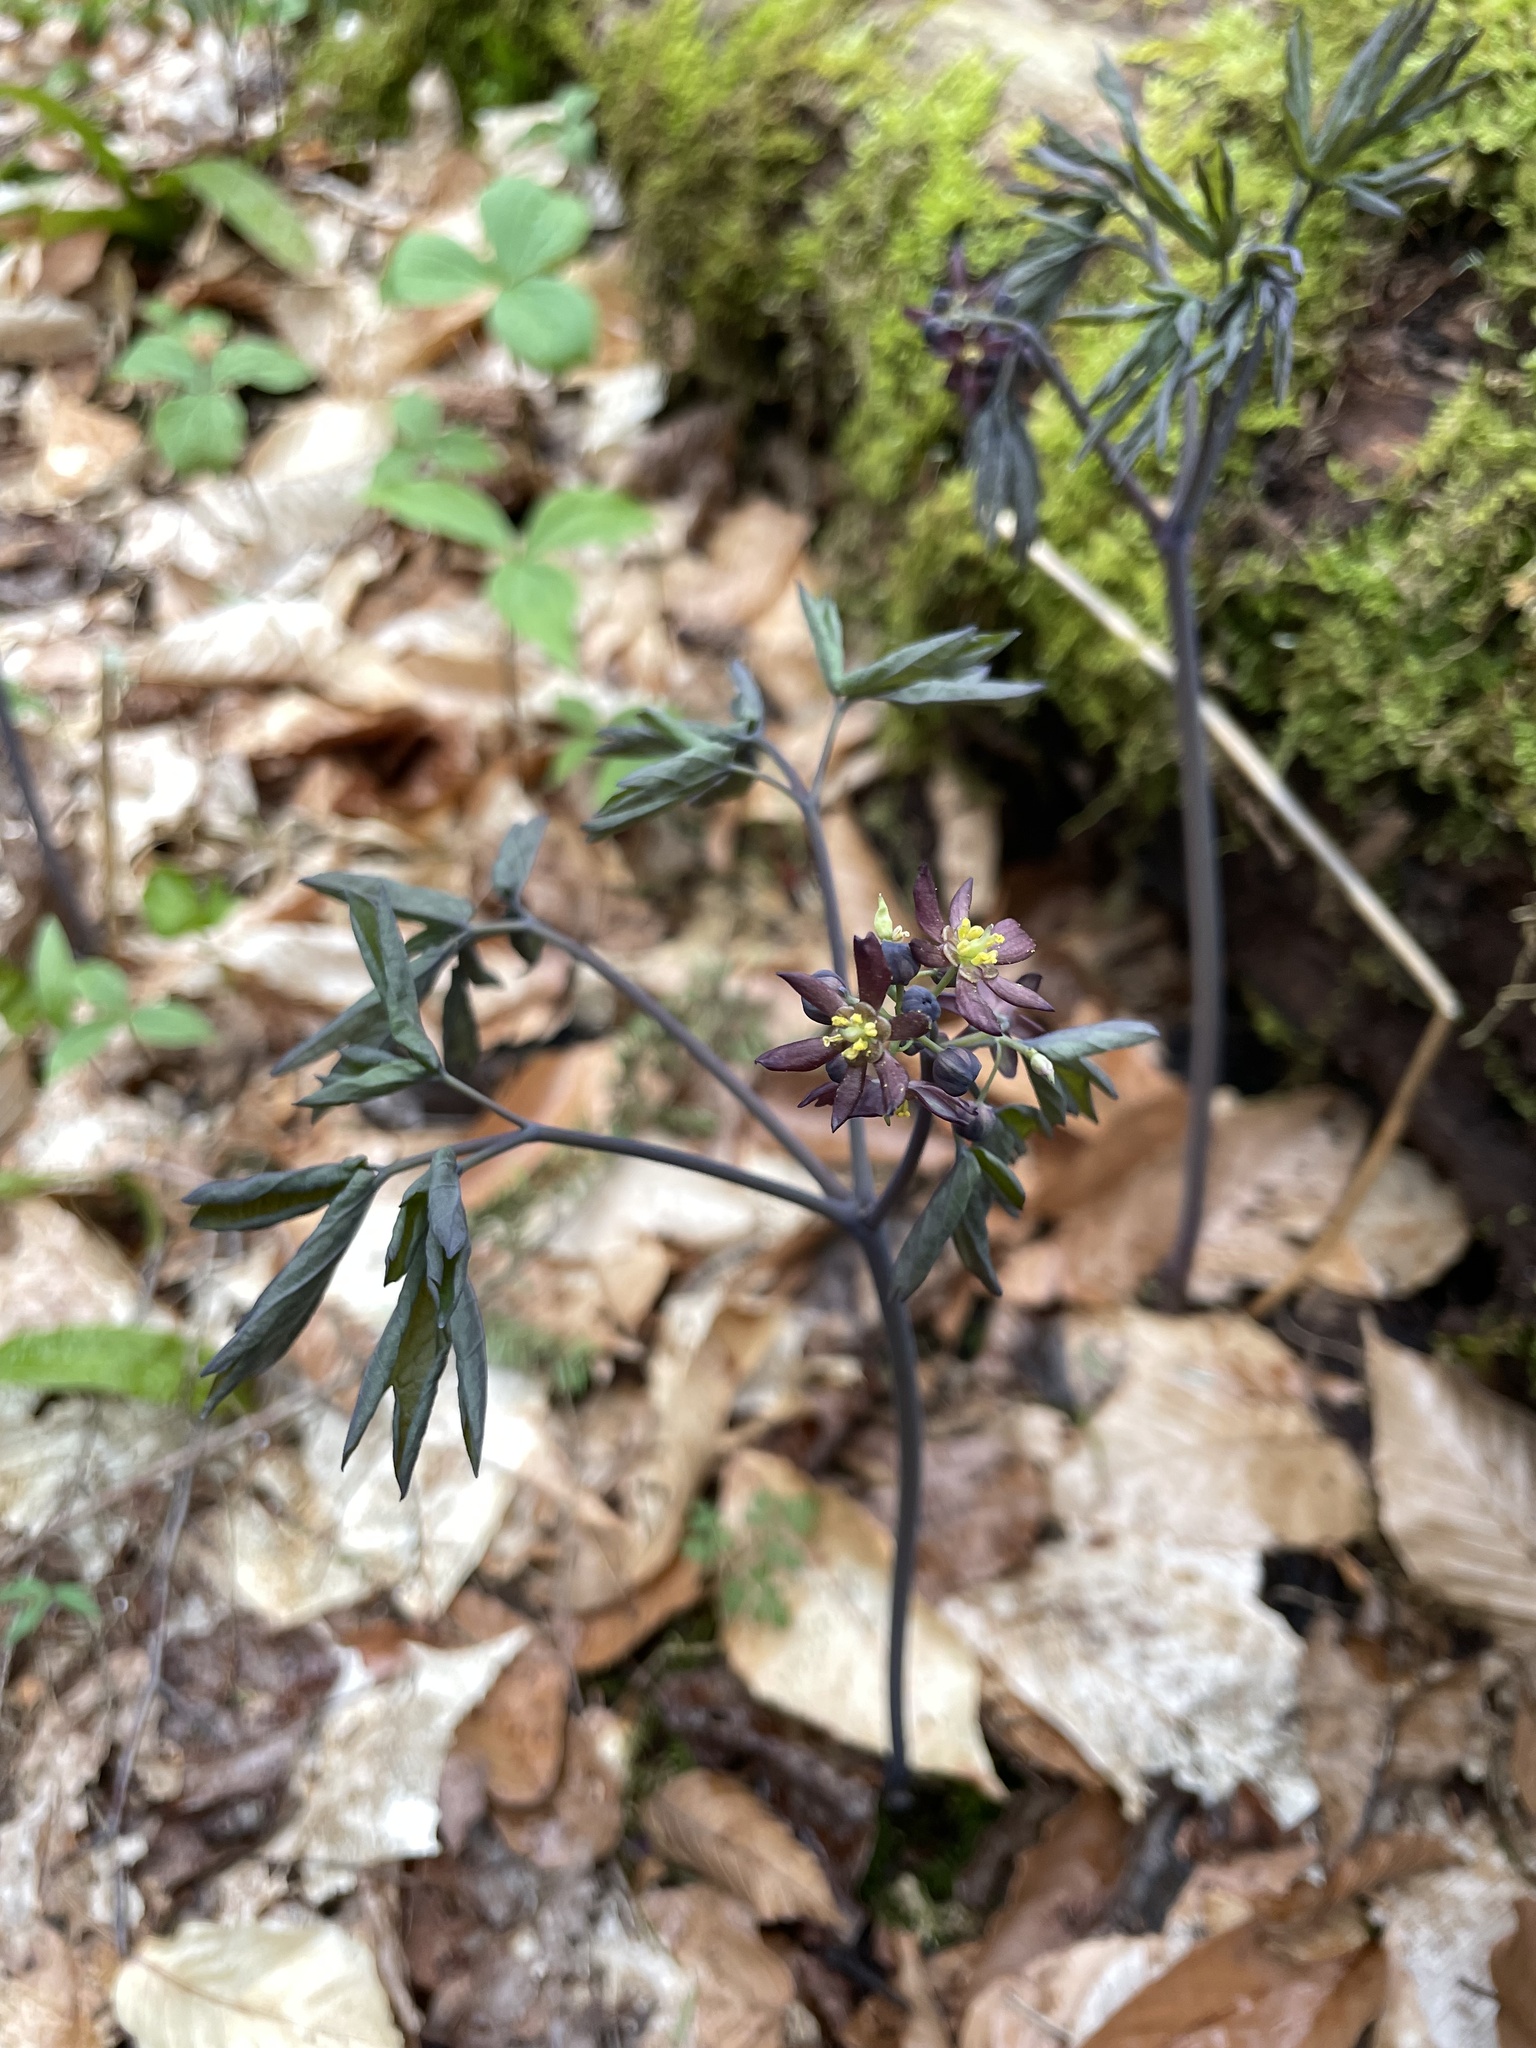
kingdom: Plantae
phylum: Tracheophyta
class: Magnoliopsida
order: Ranunculales
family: Berberidaceae
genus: Caulophyllum
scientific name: Caulophyllum giganteum
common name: Blue cohosh
